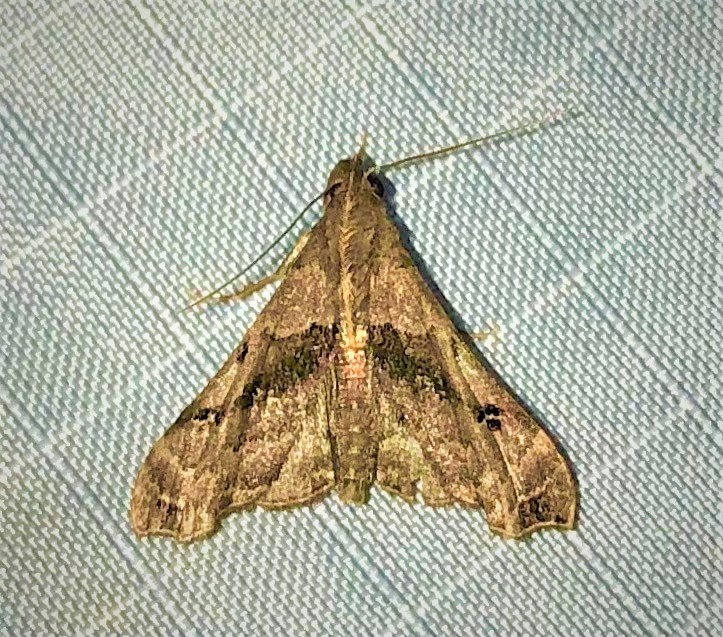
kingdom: Animalia
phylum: Arthropoda
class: Insecta
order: Lepidoptera
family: Erebidae
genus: Palthis
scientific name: Palthis asopialis
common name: Faint-spotted palthis moth
